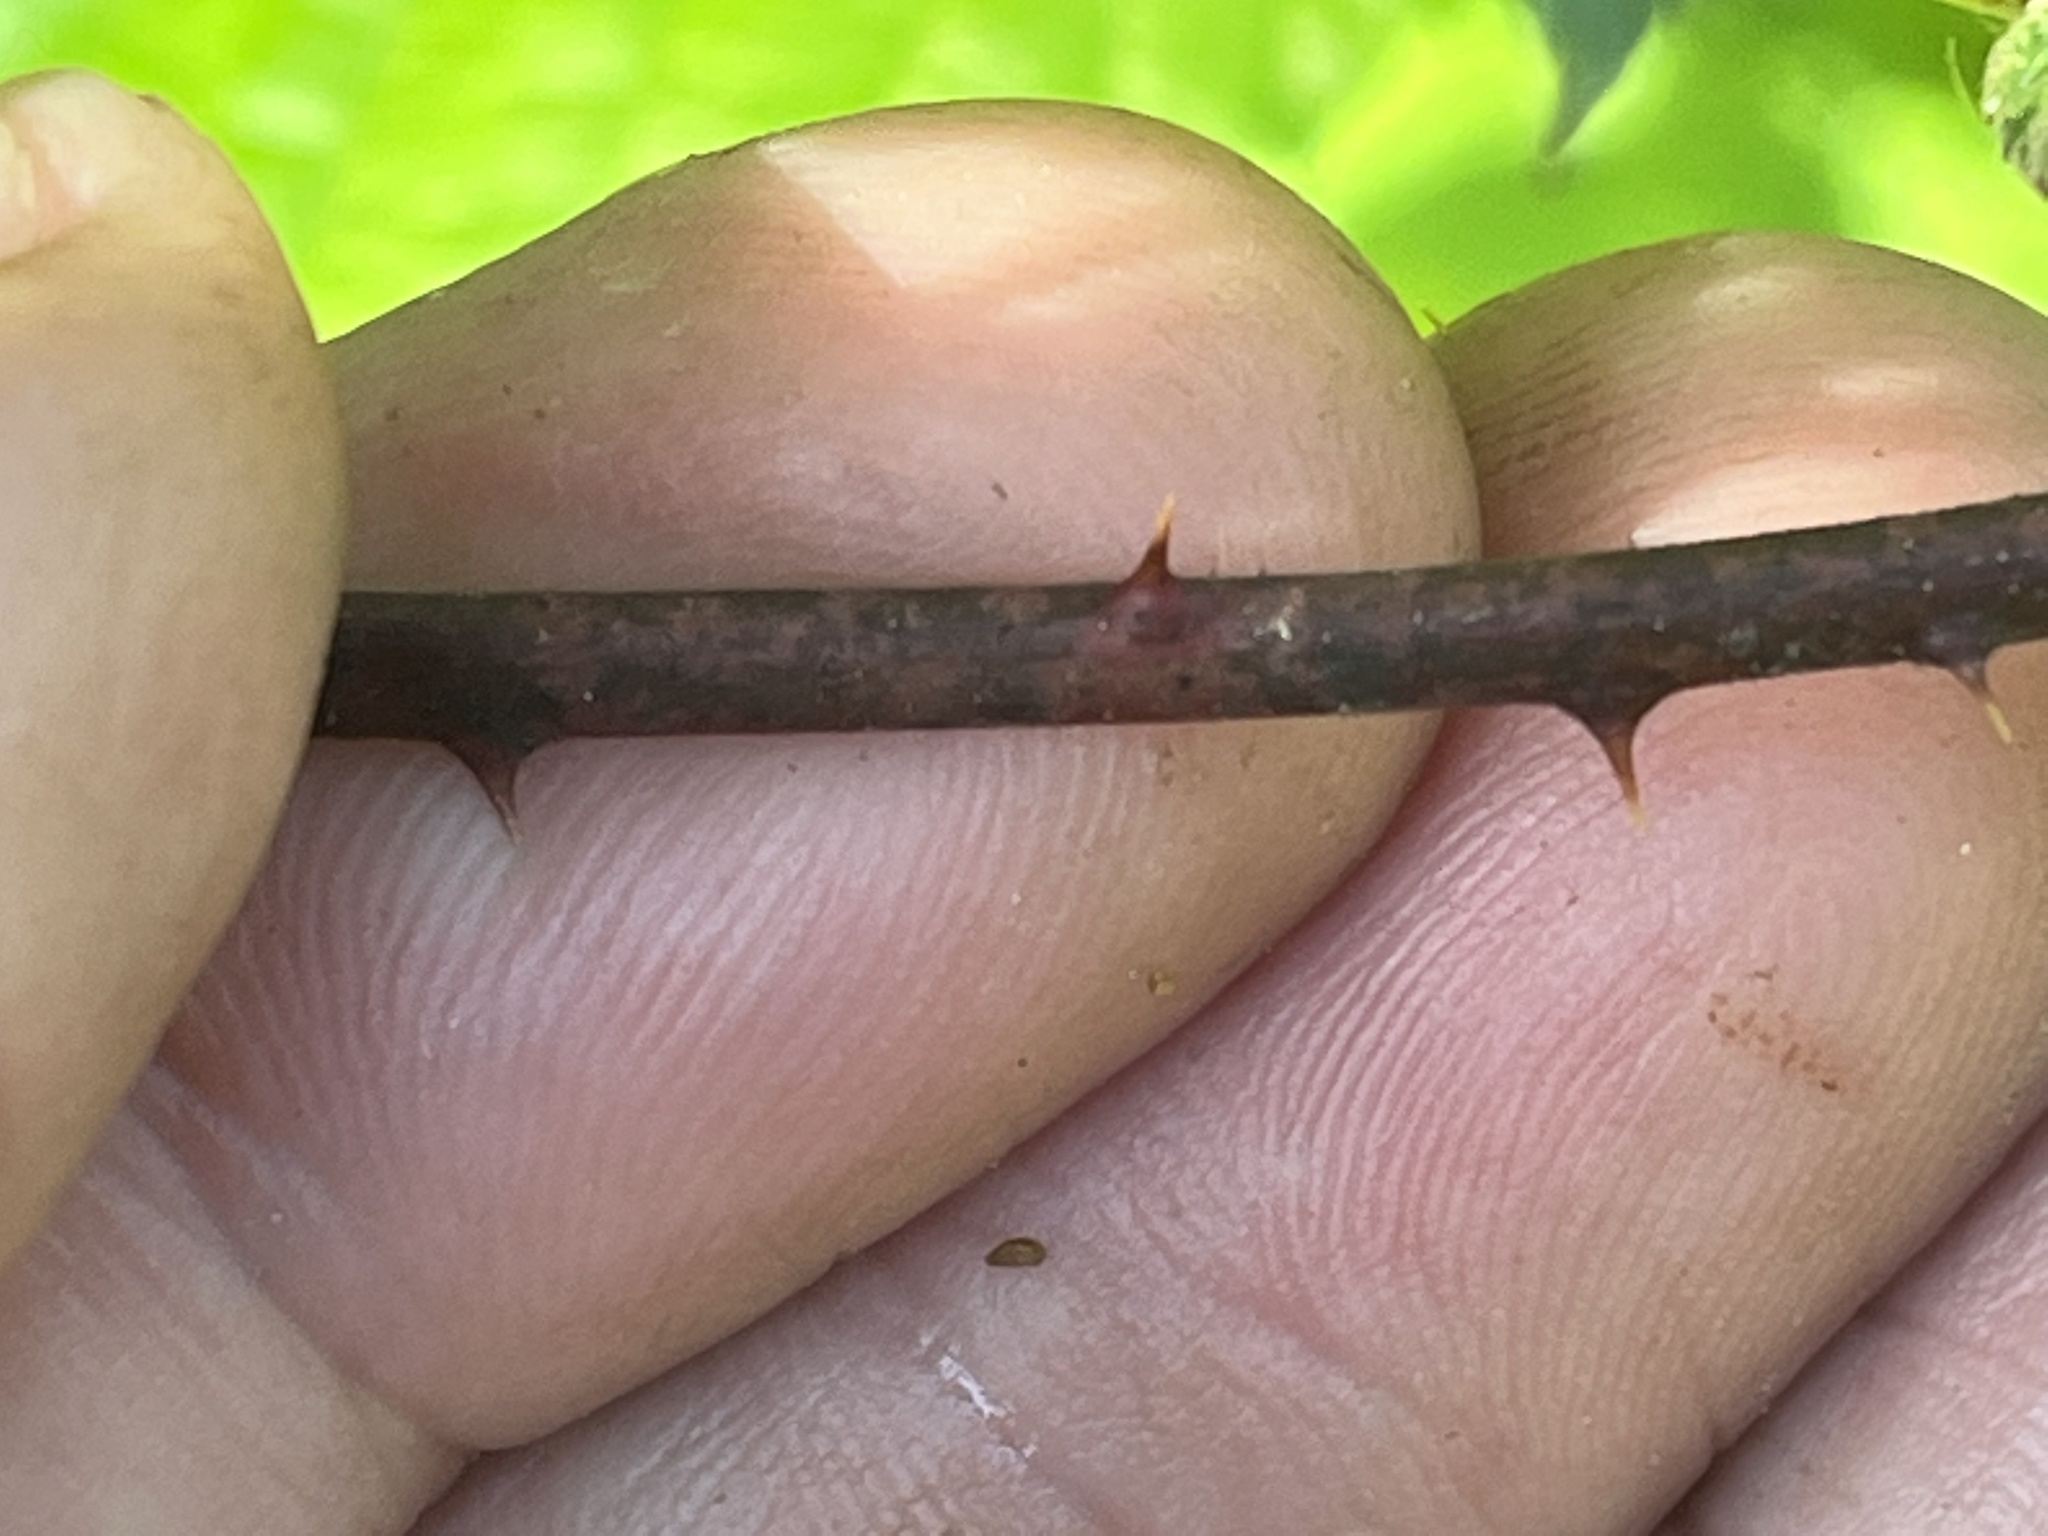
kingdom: Plantae
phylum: Tracheophyta
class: Magnoliopsida
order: Rosales
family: Rosaceae
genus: Rubus
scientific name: Rubus allegheniensis
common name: Allegheny blackberry
